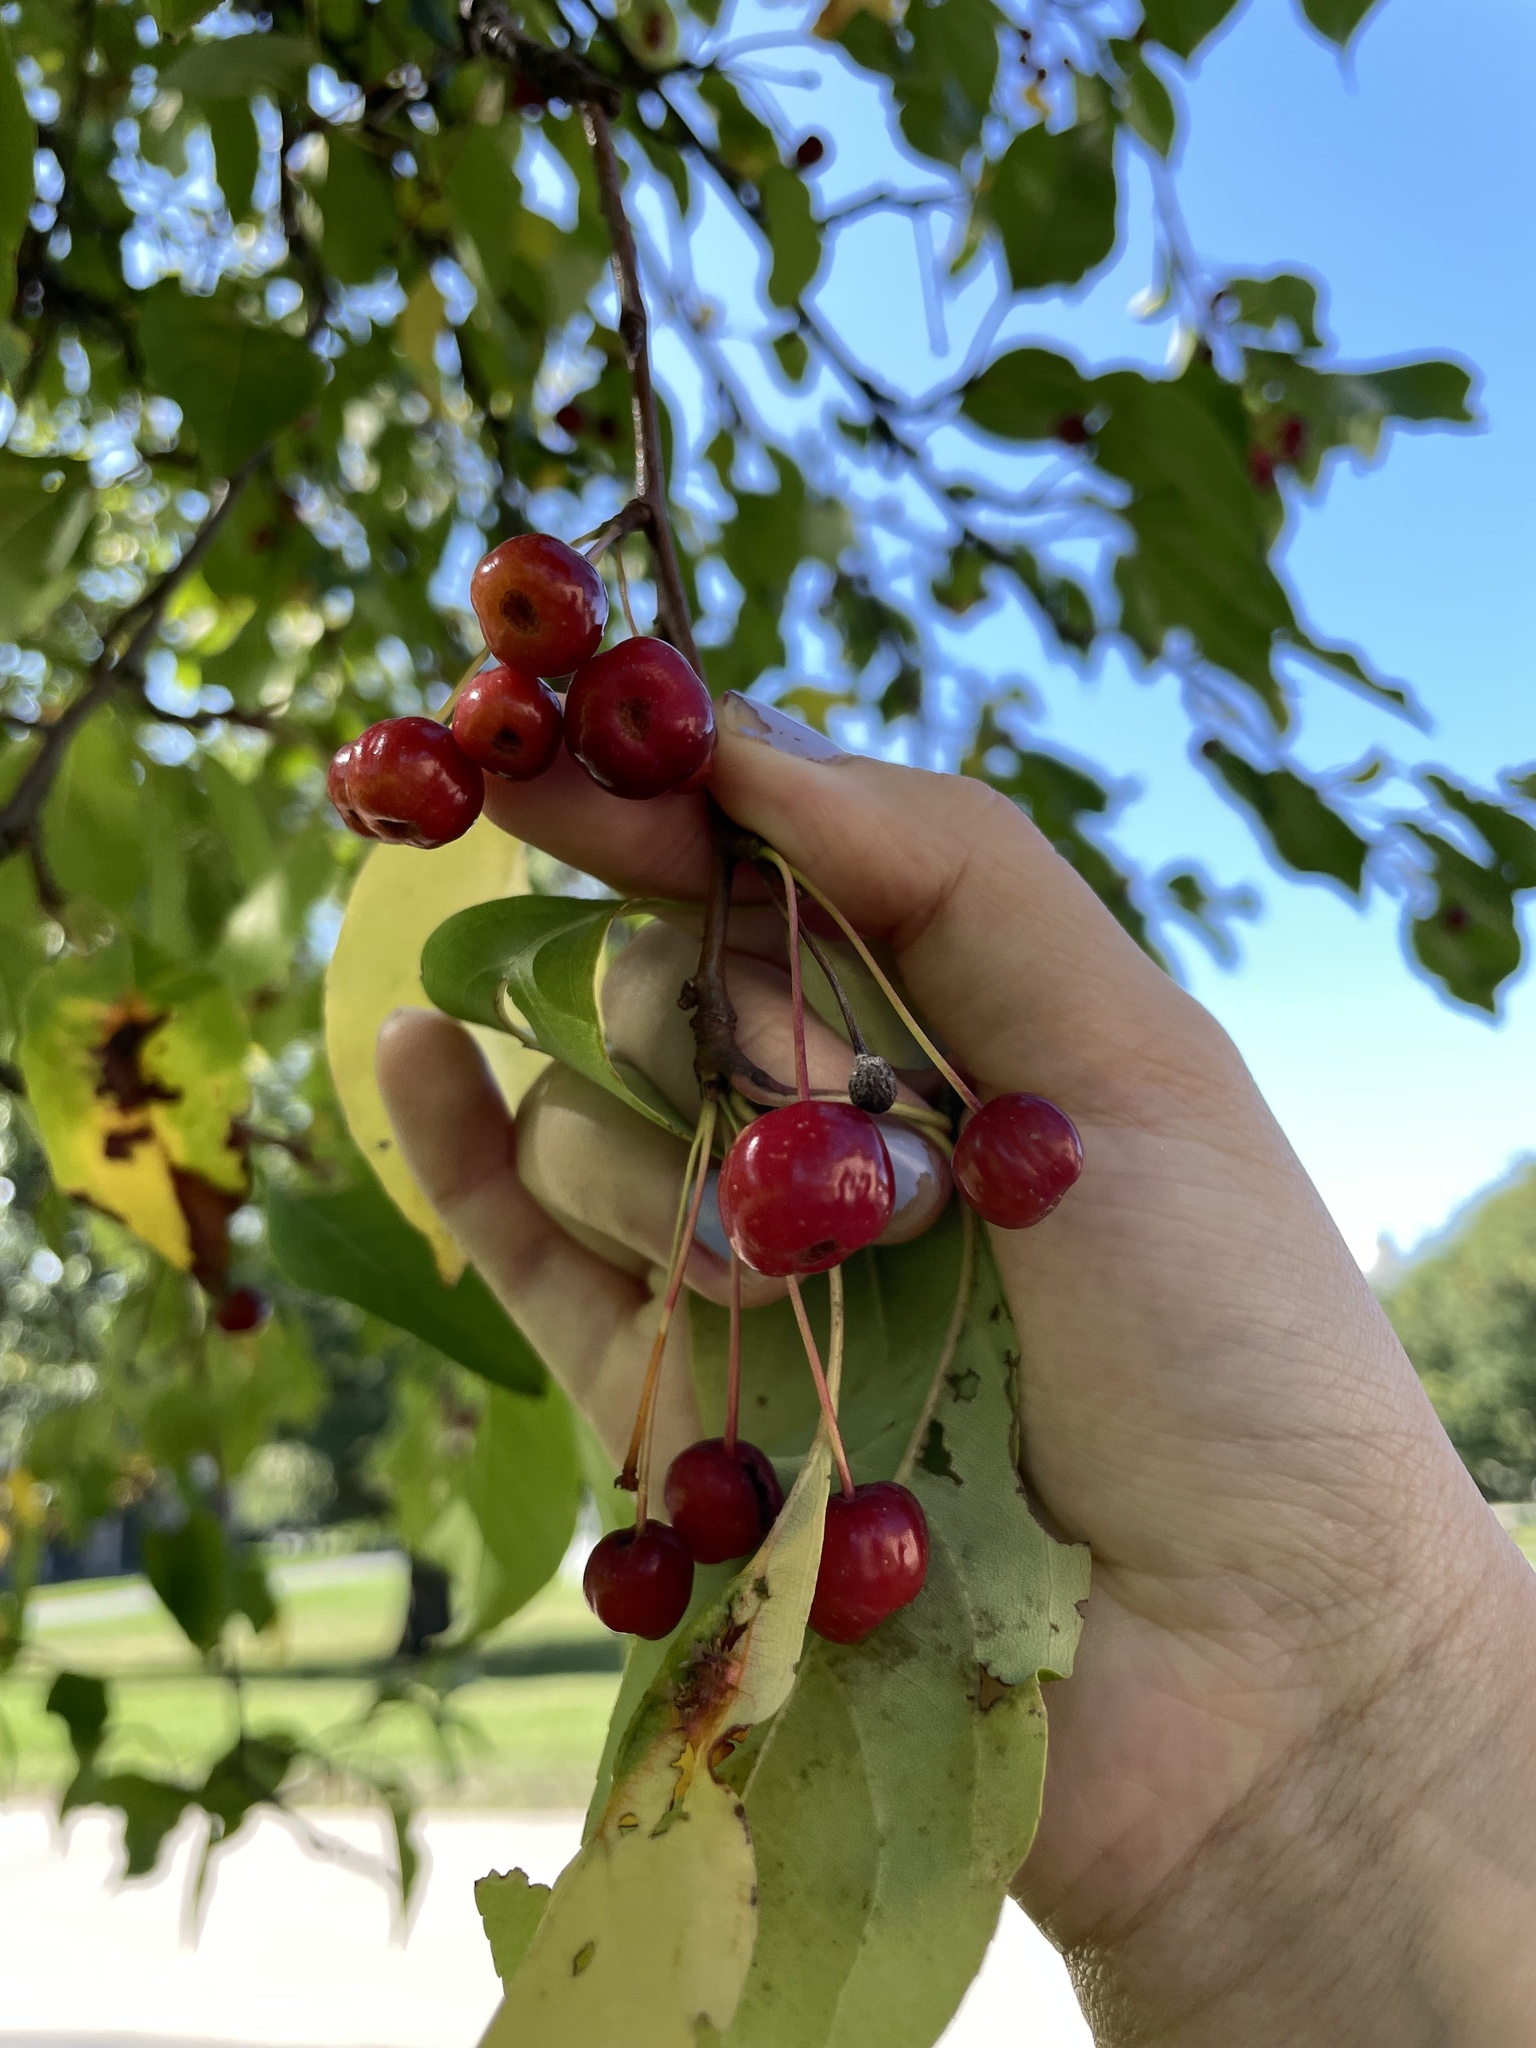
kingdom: Plantae
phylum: Tracheophyta
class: Magnoliopsida
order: Rosales
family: Rosaceae
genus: Malus
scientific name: Malus baccata
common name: Siberian crab
